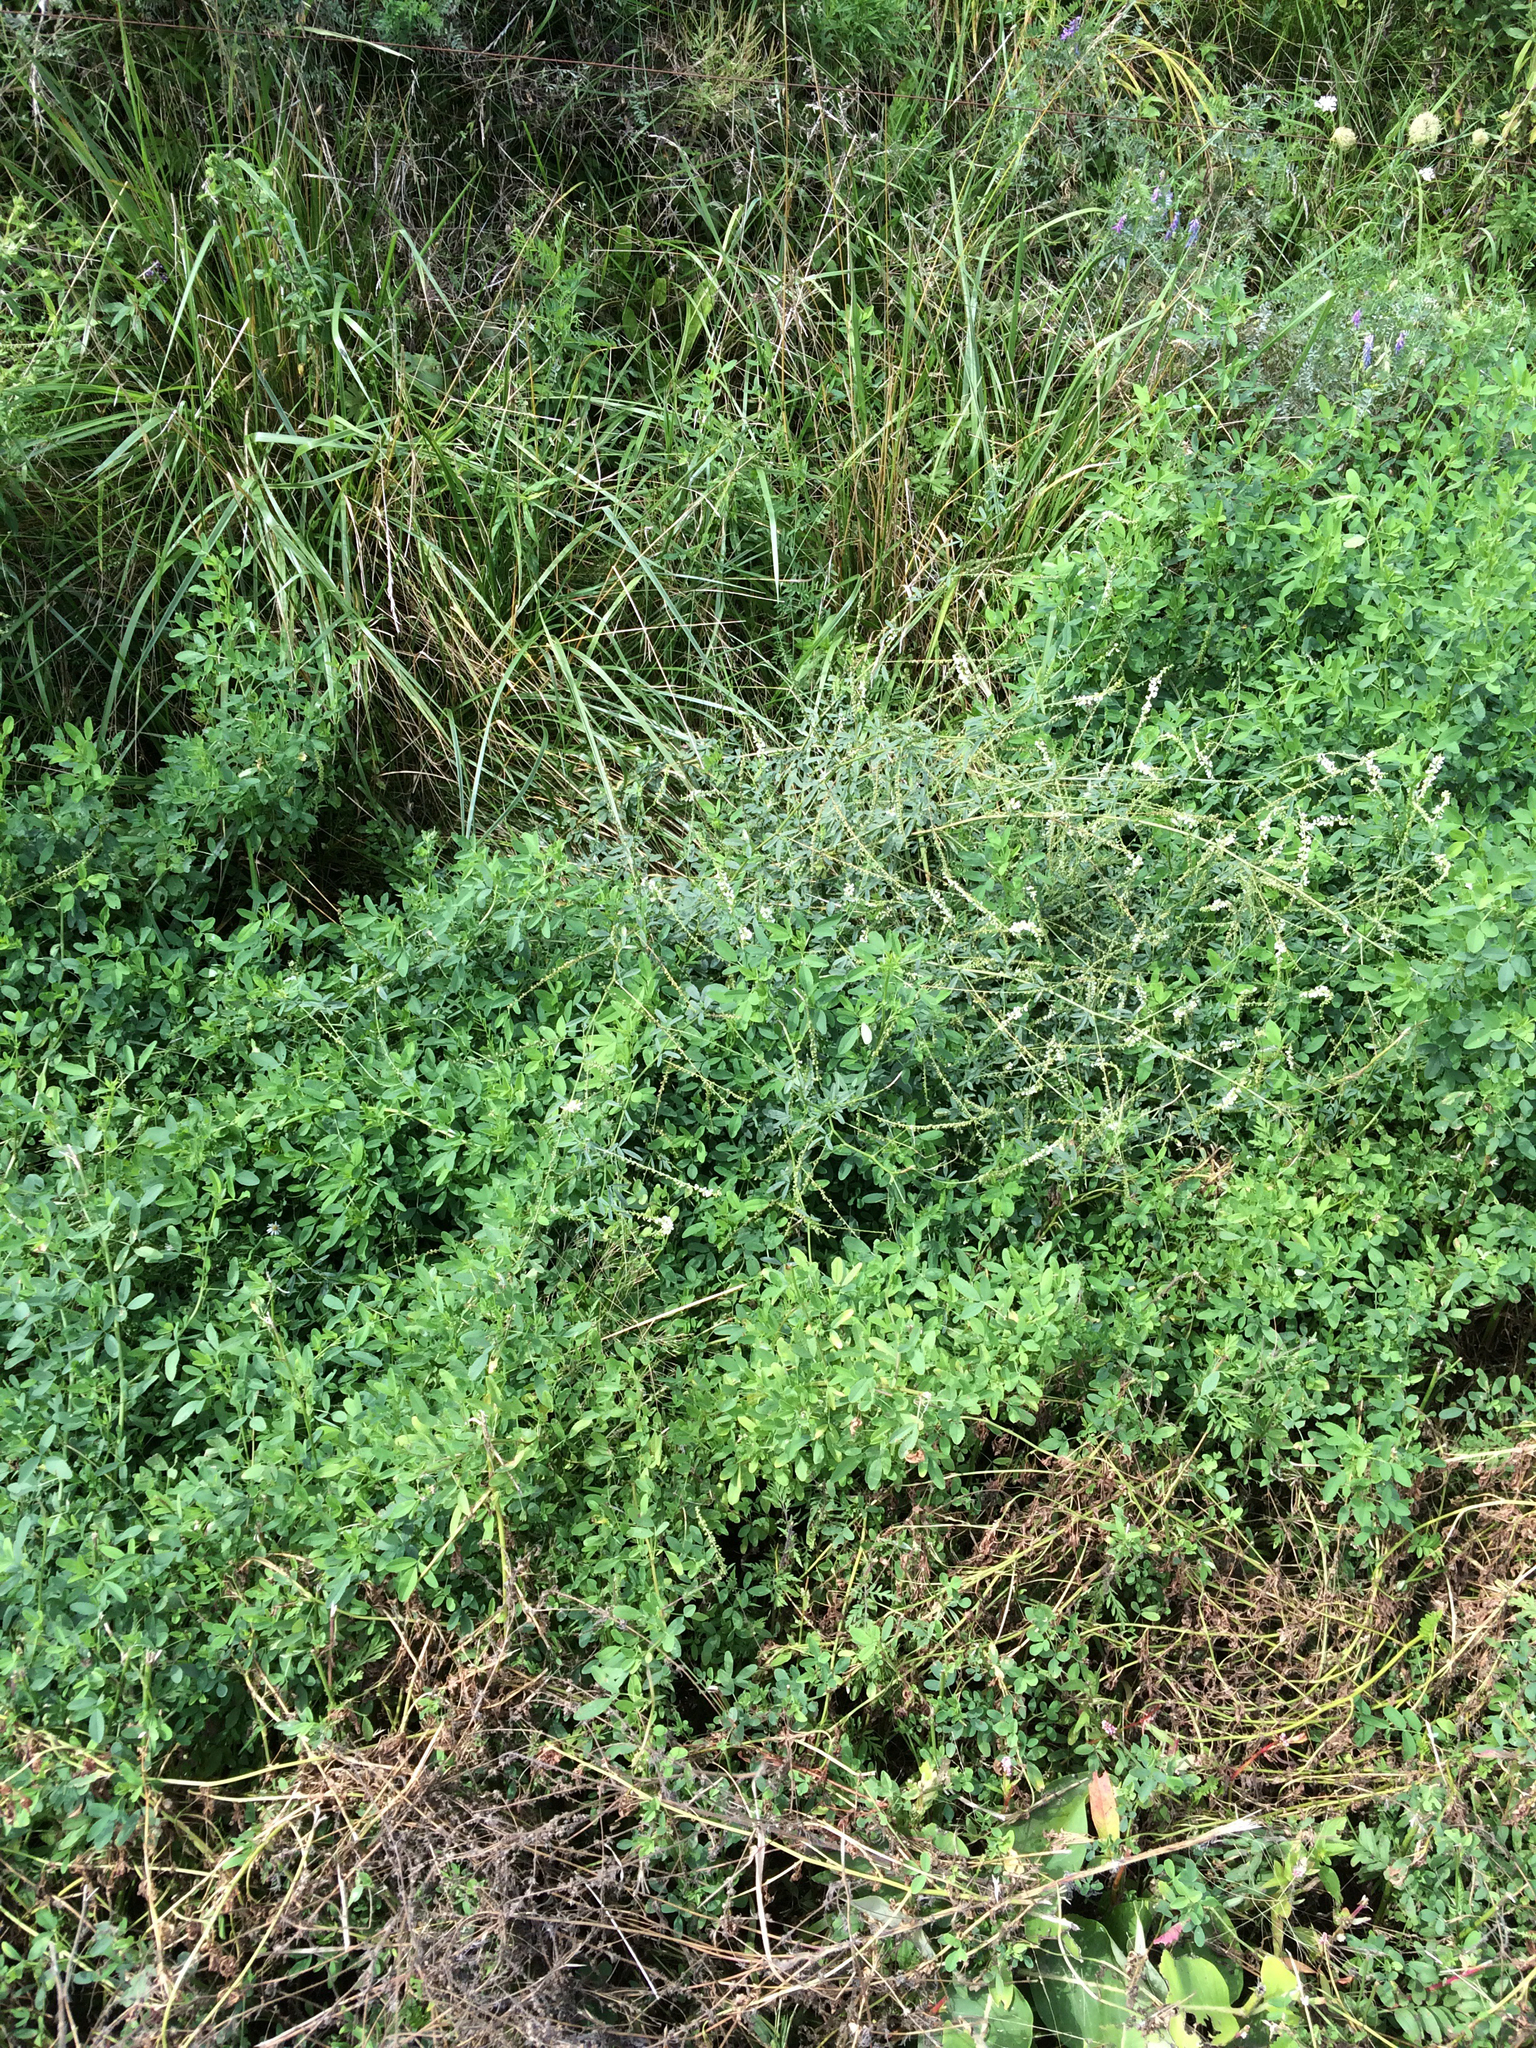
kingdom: Plantae
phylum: Tracheophyta
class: Magnoliopsida
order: Fabales
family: Fabaceae
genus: Melilotus
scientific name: Melilotus albus
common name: White melilot
